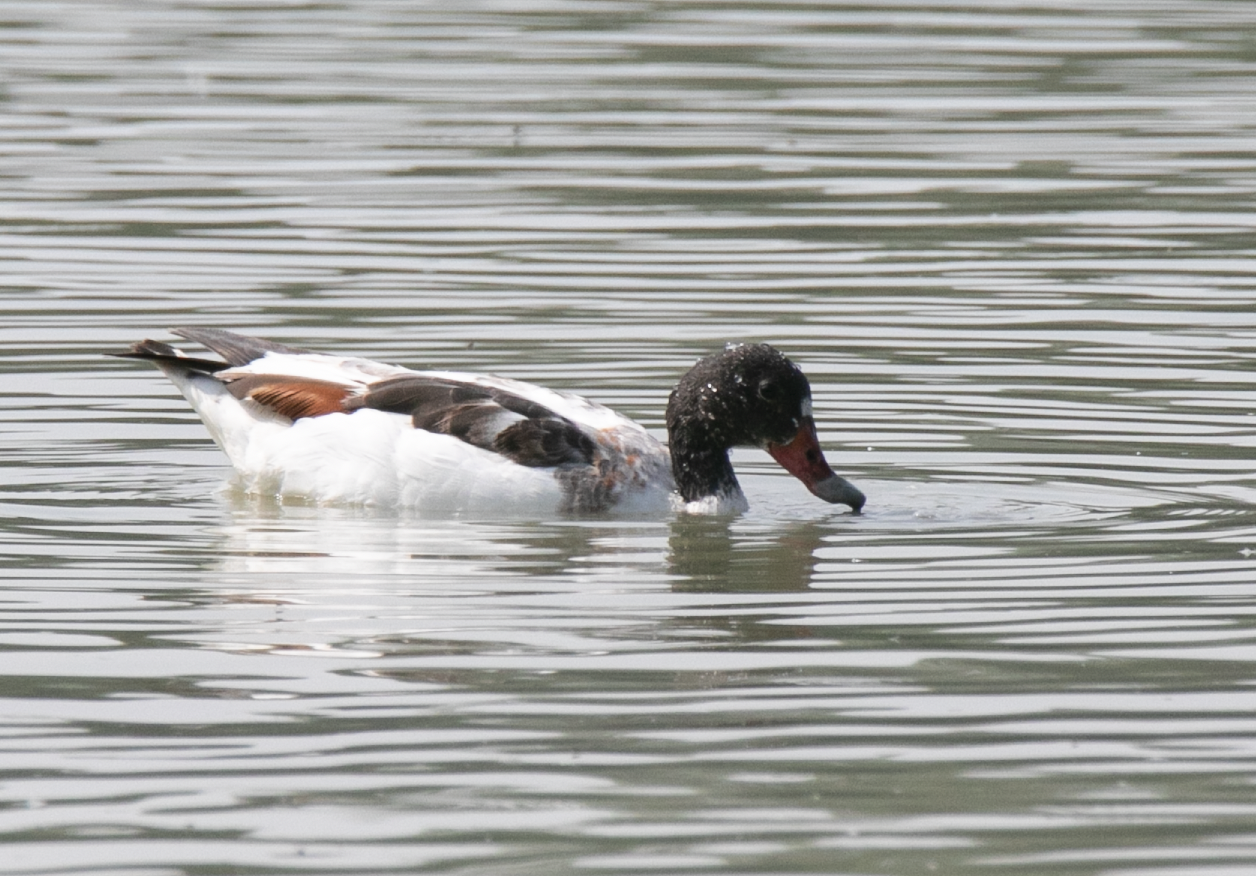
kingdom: Animalia
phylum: Chordata
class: Aves
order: Anseriformes
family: Anatidae
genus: Tadorna
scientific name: Tadorna tadorna
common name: Common shelduck
